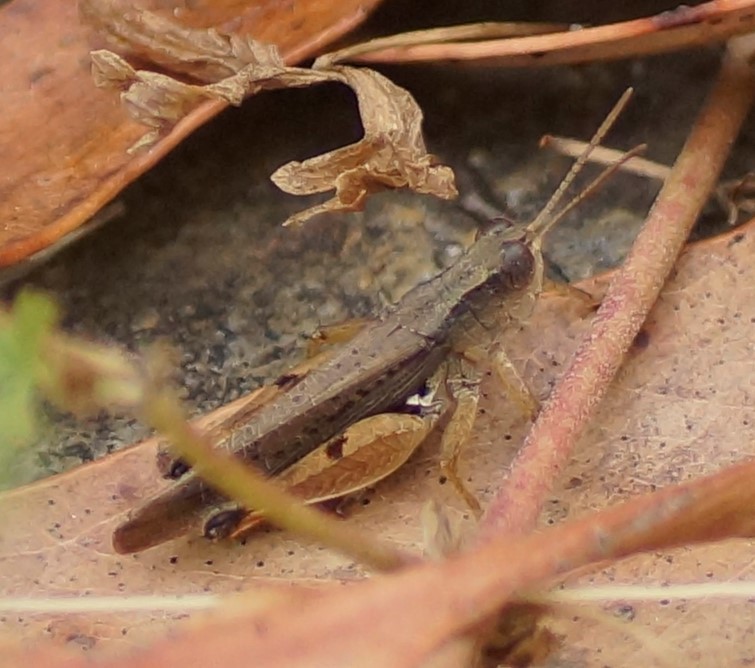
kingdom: Animalia
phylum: Arthropoda
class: Insecta
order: Orthoptera
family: Acrididae
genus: Phaulacridium
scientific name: Phaulacridium vittatum
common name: Wingless grasshopper
